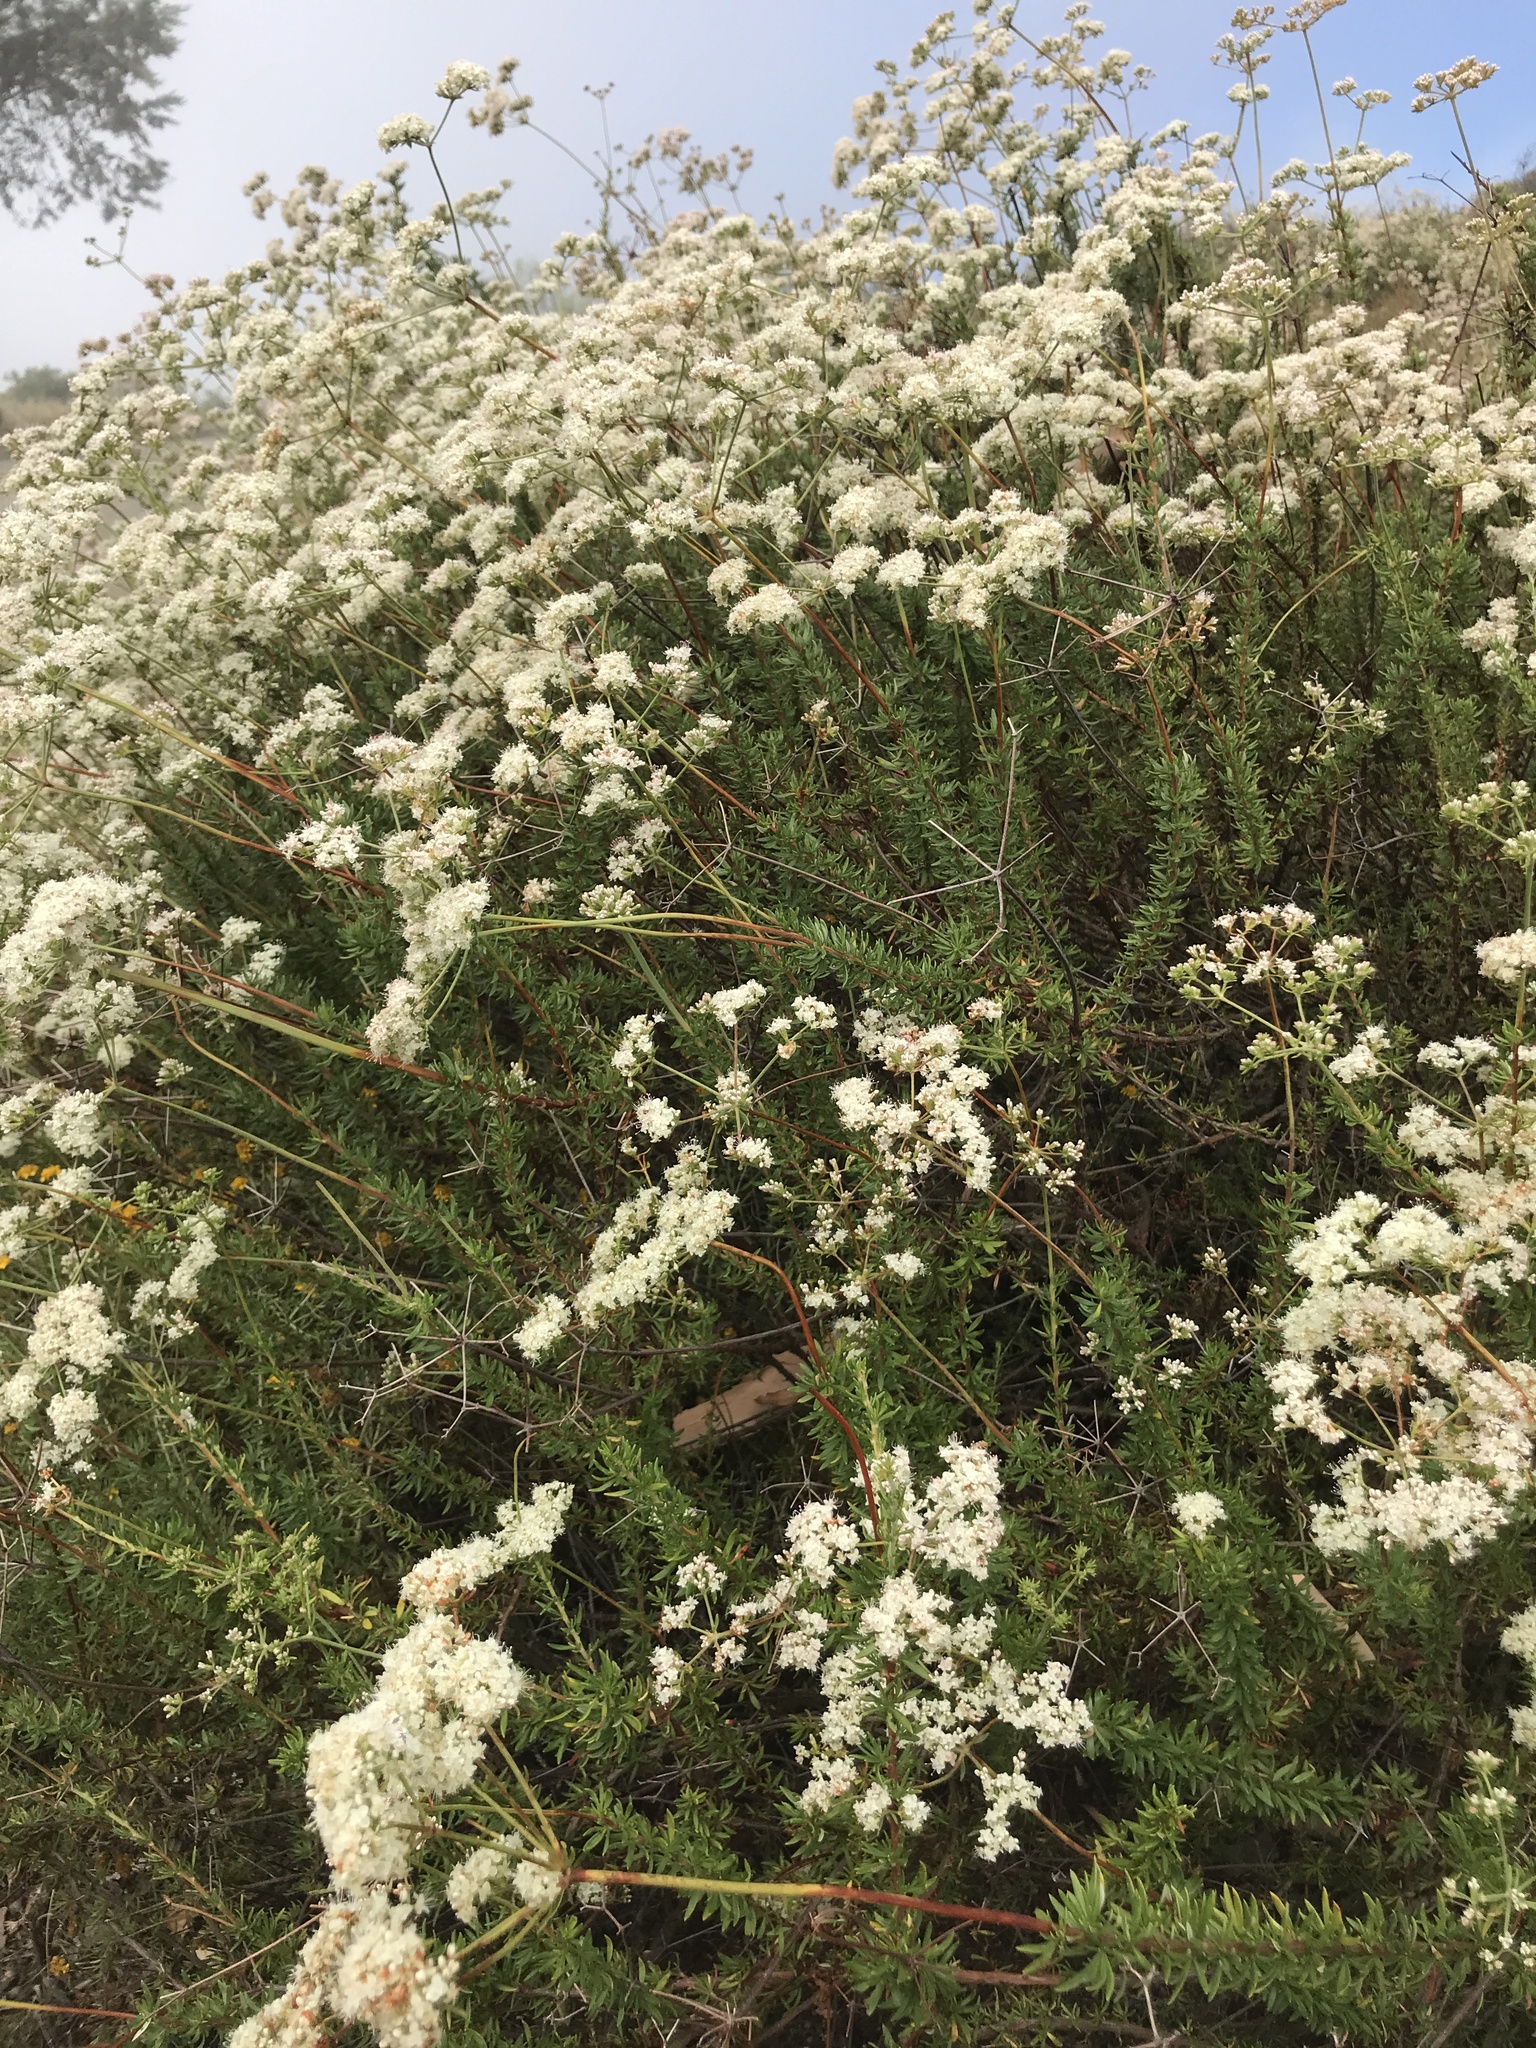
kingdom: Plantae
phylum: Tracheophyta
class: Magnoliopsida
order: Caryophyllales
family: Polygonaceae
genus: Eriogonum
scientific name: Eriogonum fasciculatum
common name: California wild buckwheat
